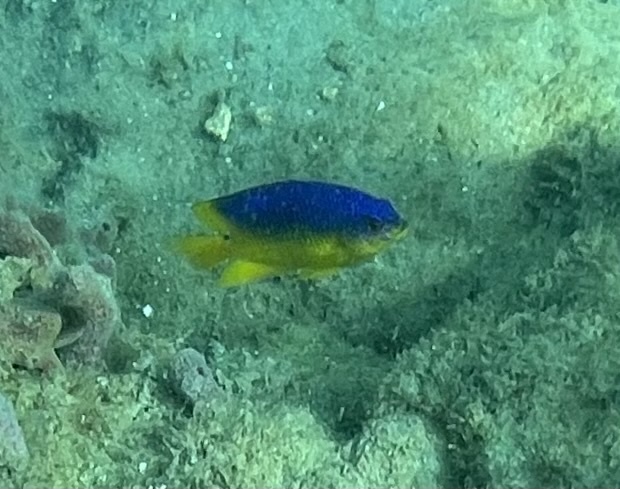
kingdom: Animalia
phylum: Chordata
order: Perciformes
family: Pomacentridae
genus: Stegastes
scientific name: Stegastes xanthurus
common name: Cocoa damselfish
